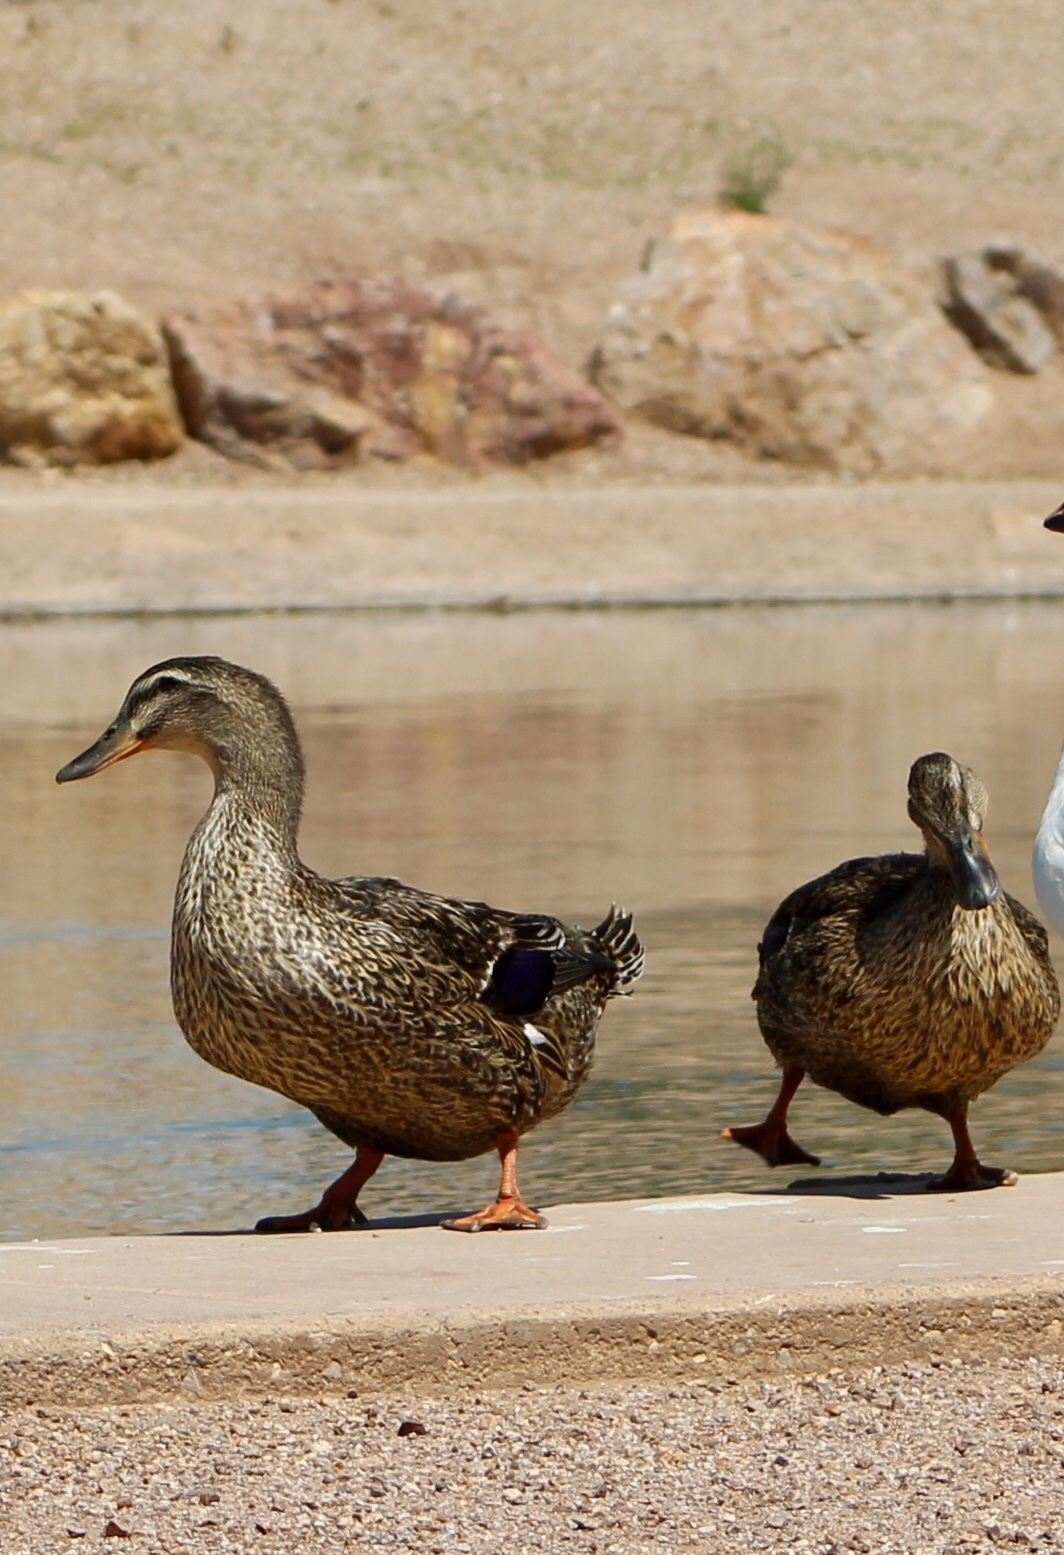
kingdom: Animalia
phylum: Chordata
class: Aves
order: Anseriformes
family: Anatidae
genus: Anas
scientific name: Anas platyrhynchos
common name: Mallard
